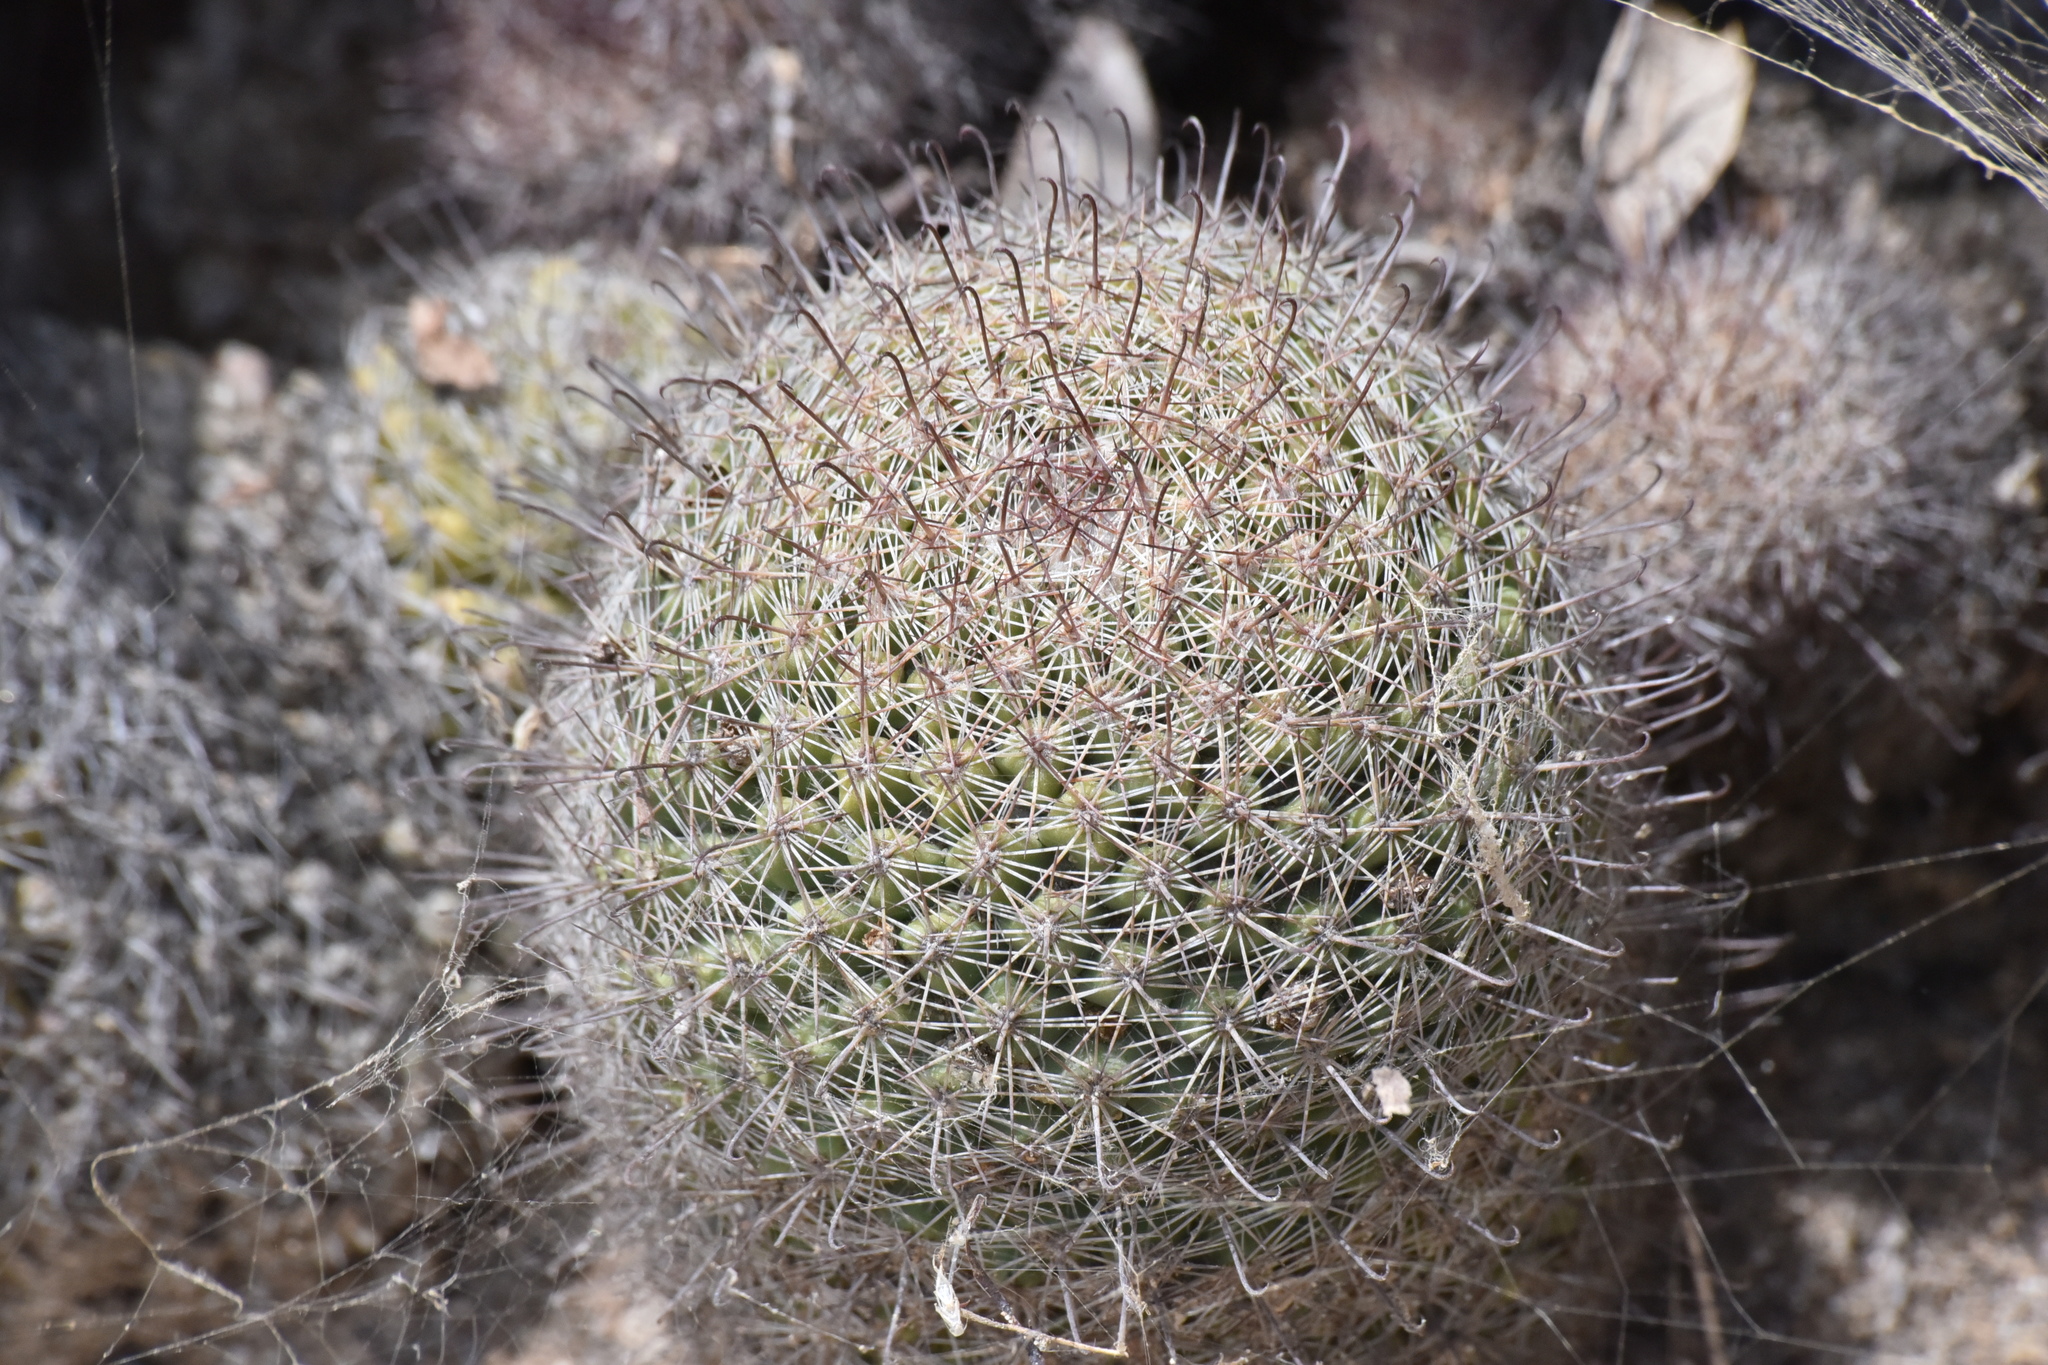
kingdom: Plantae
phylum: Tracheophyta
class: Magnoliopsida
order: Caryophyllales
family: Cactaceae
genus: Cochemiea
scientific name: Cochemiea dioica
